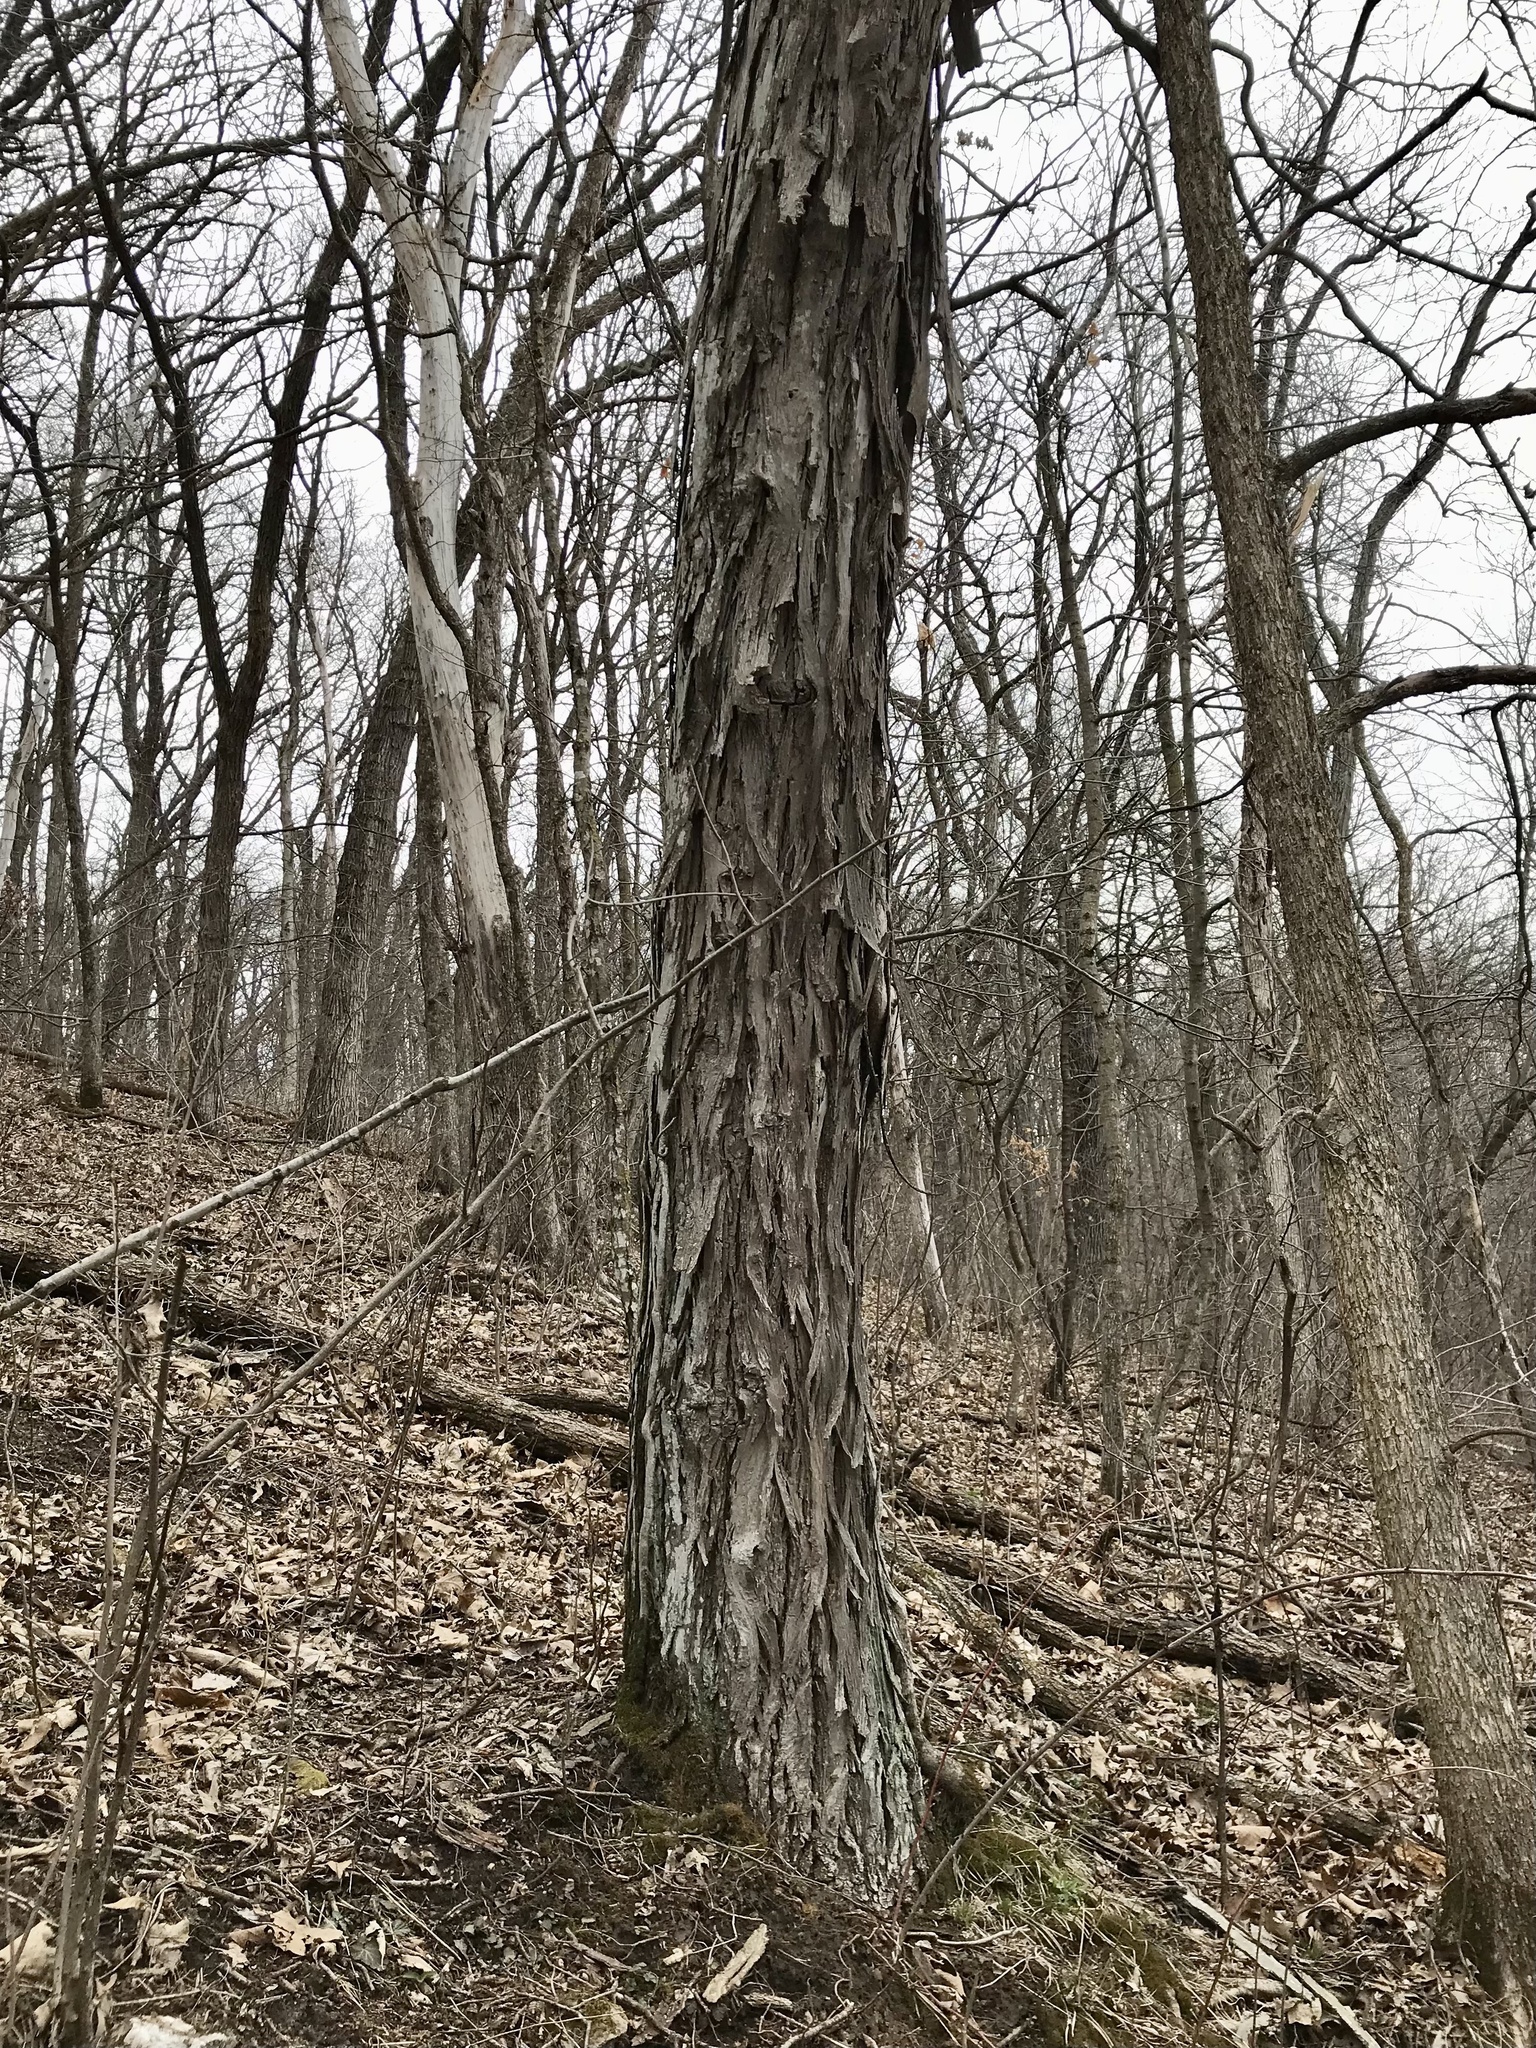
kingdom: Plantae
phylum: Tracheophyta
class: Magnoliopsida
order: Fagales
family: Juglandaceae
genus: Carya
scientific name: Carya ovata
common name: Shagbark hickory
